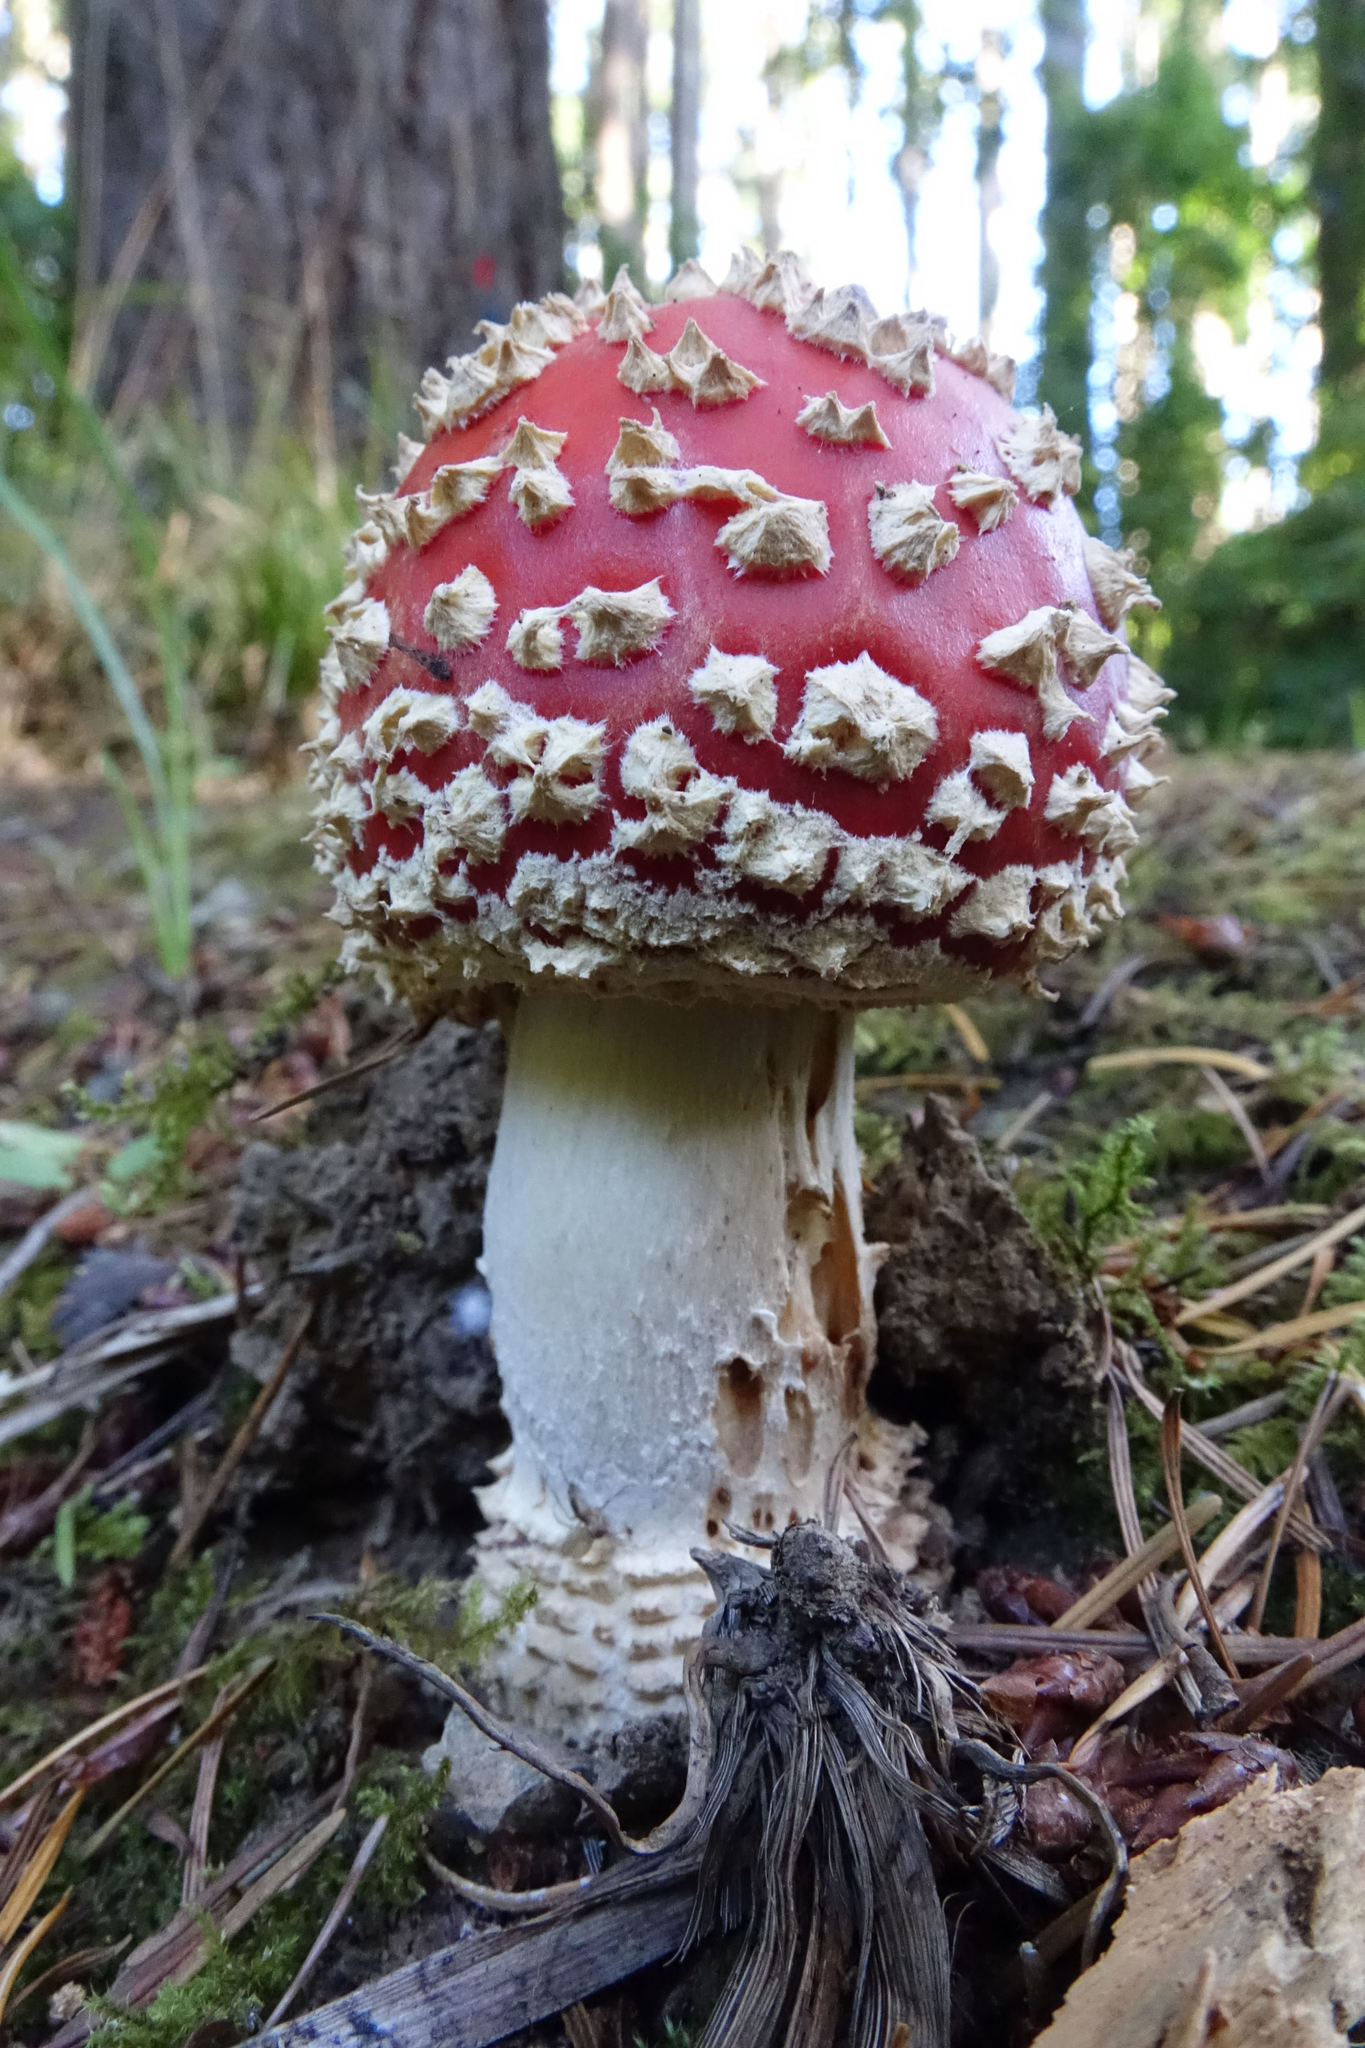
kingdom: Fungi
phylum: Basidiomycota
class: Agaricomycetes
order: Agaricales
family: Amanitaceae
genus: Amanita
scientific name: Amanita muscaria
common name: Fly agaric
